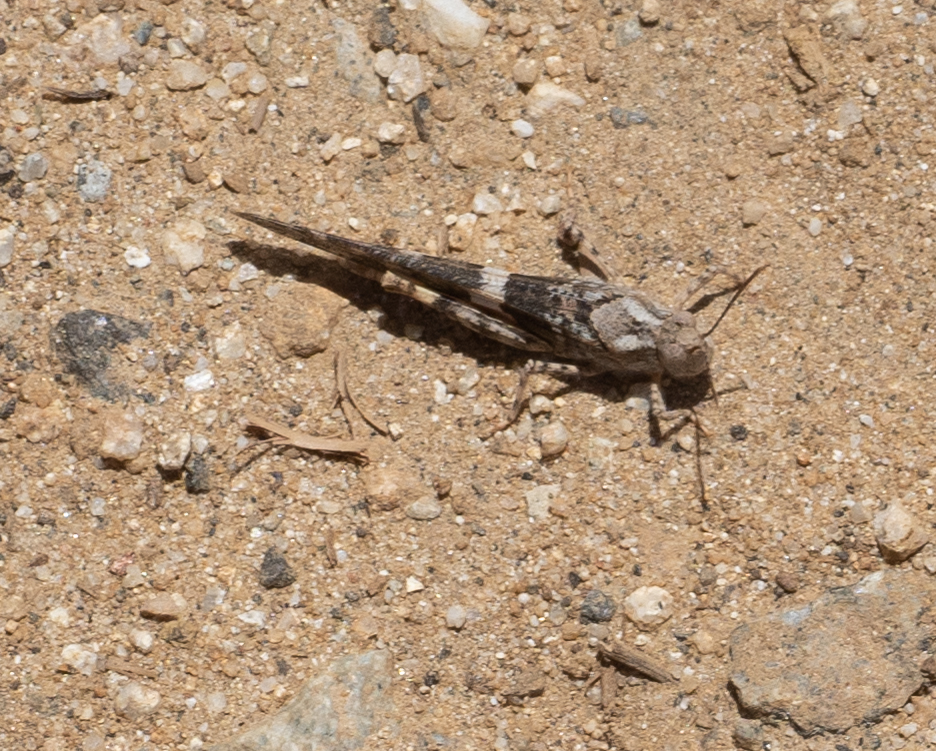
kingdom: Animalia
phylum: Arthropoda
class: Insecta
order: Orthoptera
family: Acrididae
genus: Trimerotropis
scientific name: Trimerotropis pallidipennis
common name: Pallid-winged grasshopper
